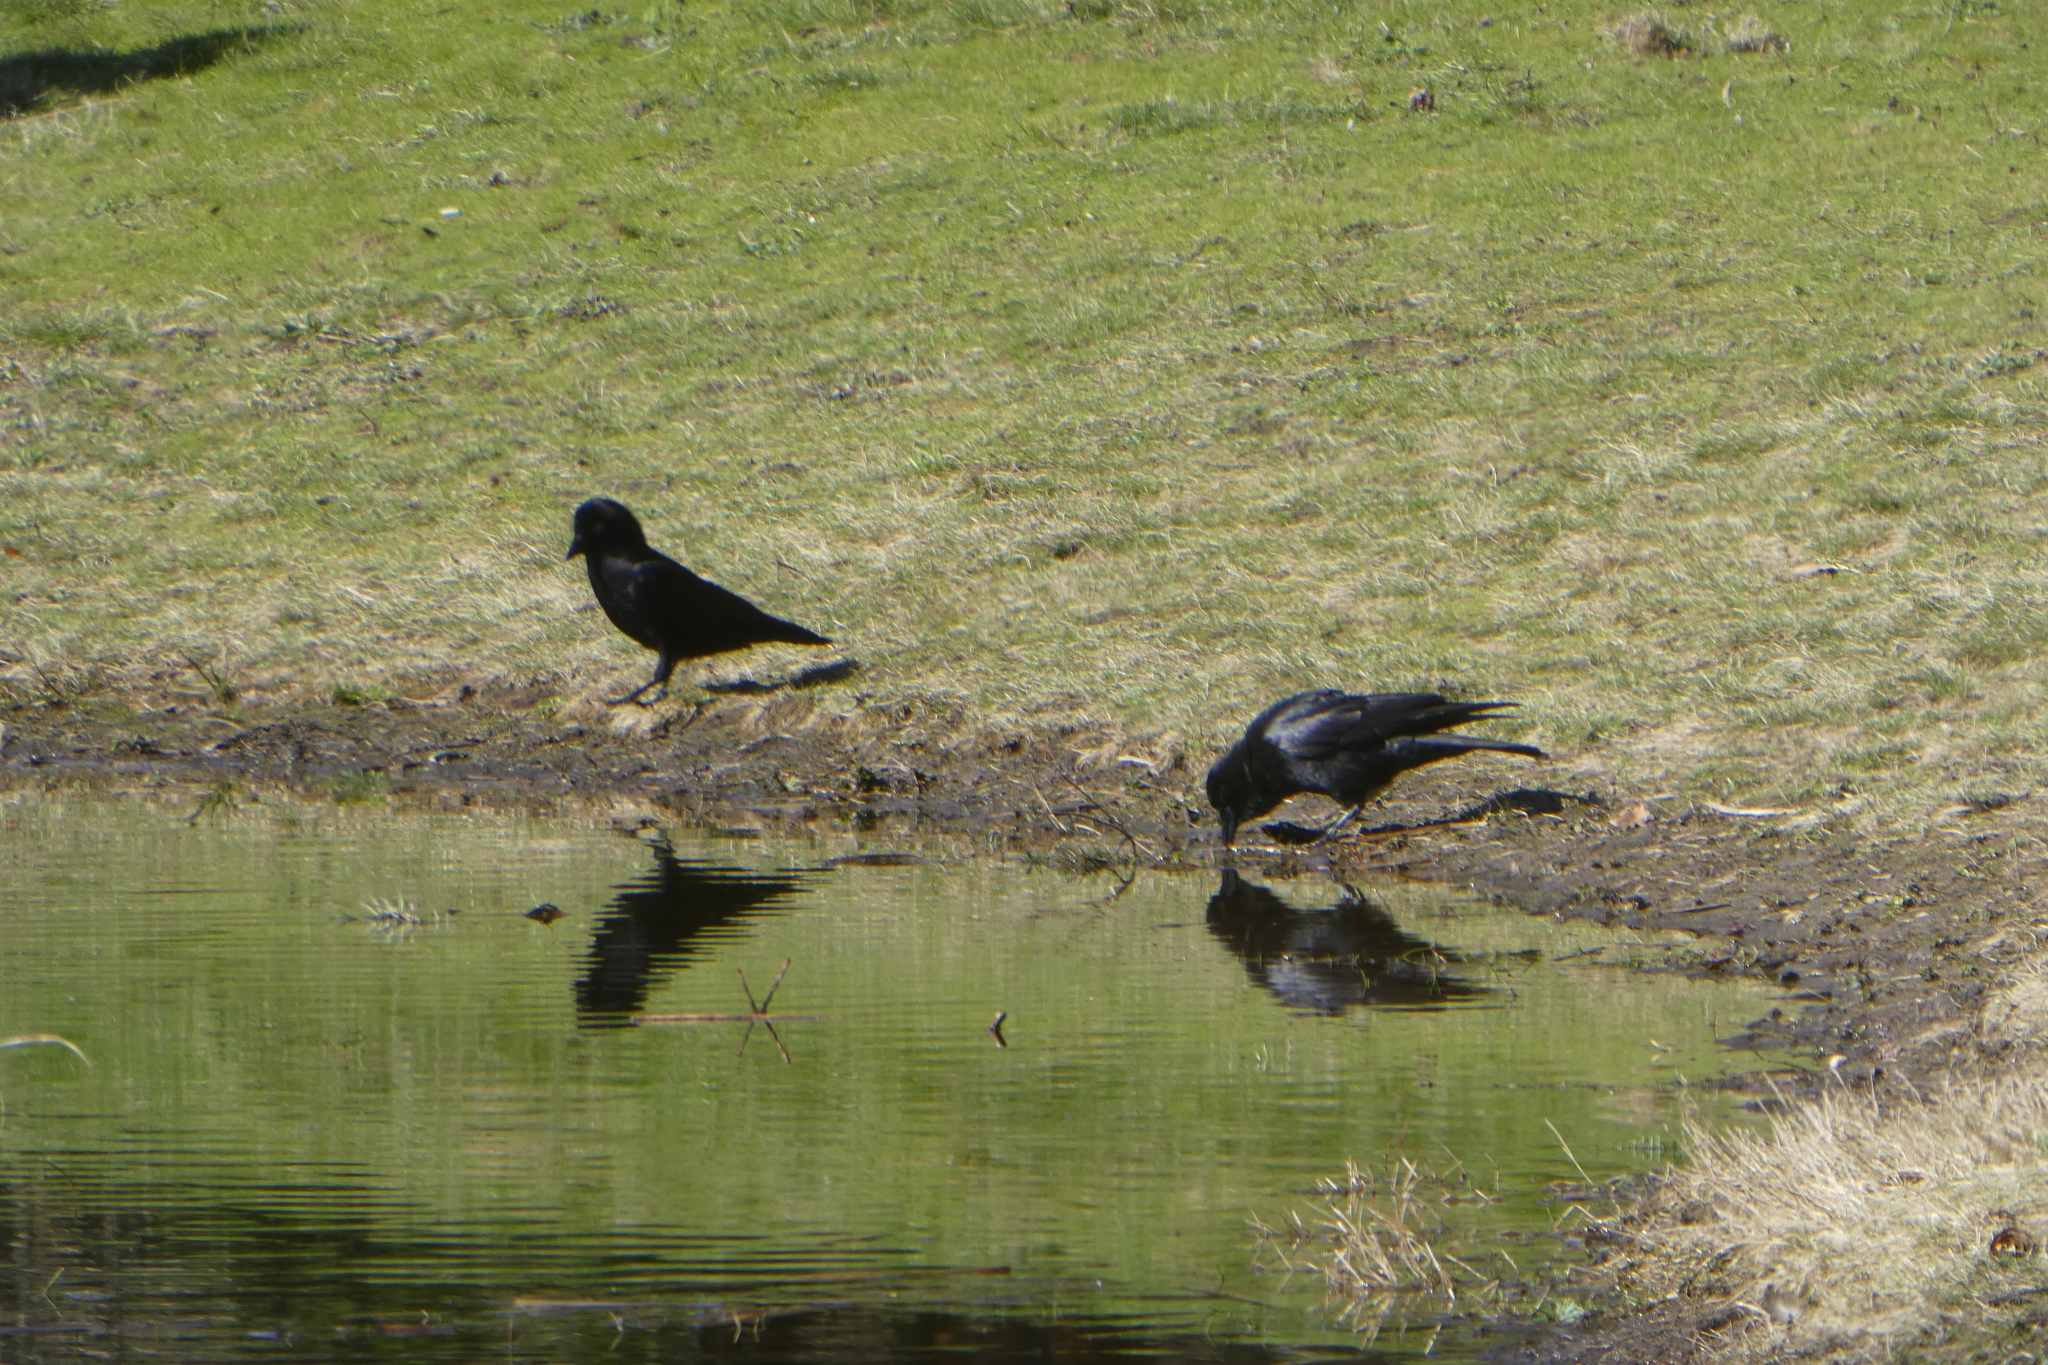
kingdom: Animalia
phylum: Chordata
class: Aves
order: Passeriformes
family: Corvidae
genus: Corvus
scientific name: Corvus brachyrhynchos
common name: American crow
